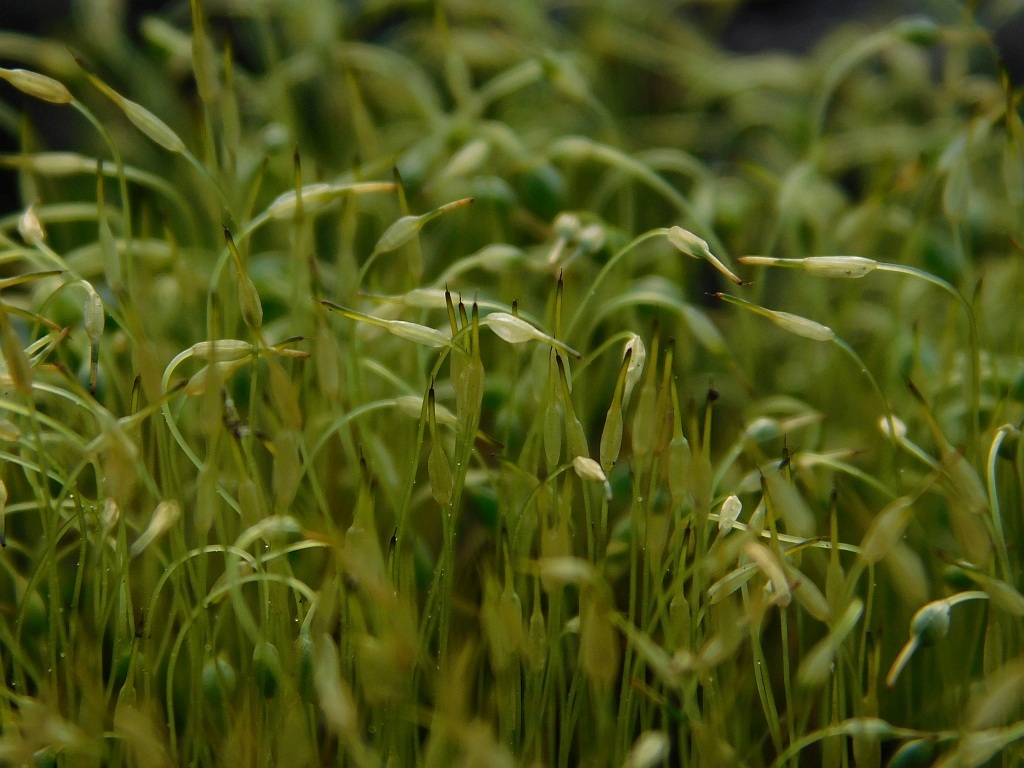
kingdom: Plantae
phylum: Bryophyta
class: Bryopsida
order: Funariales
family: Funariaceae
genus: Funaria
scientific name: Funaria hygrometrica
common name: Common cord moss
